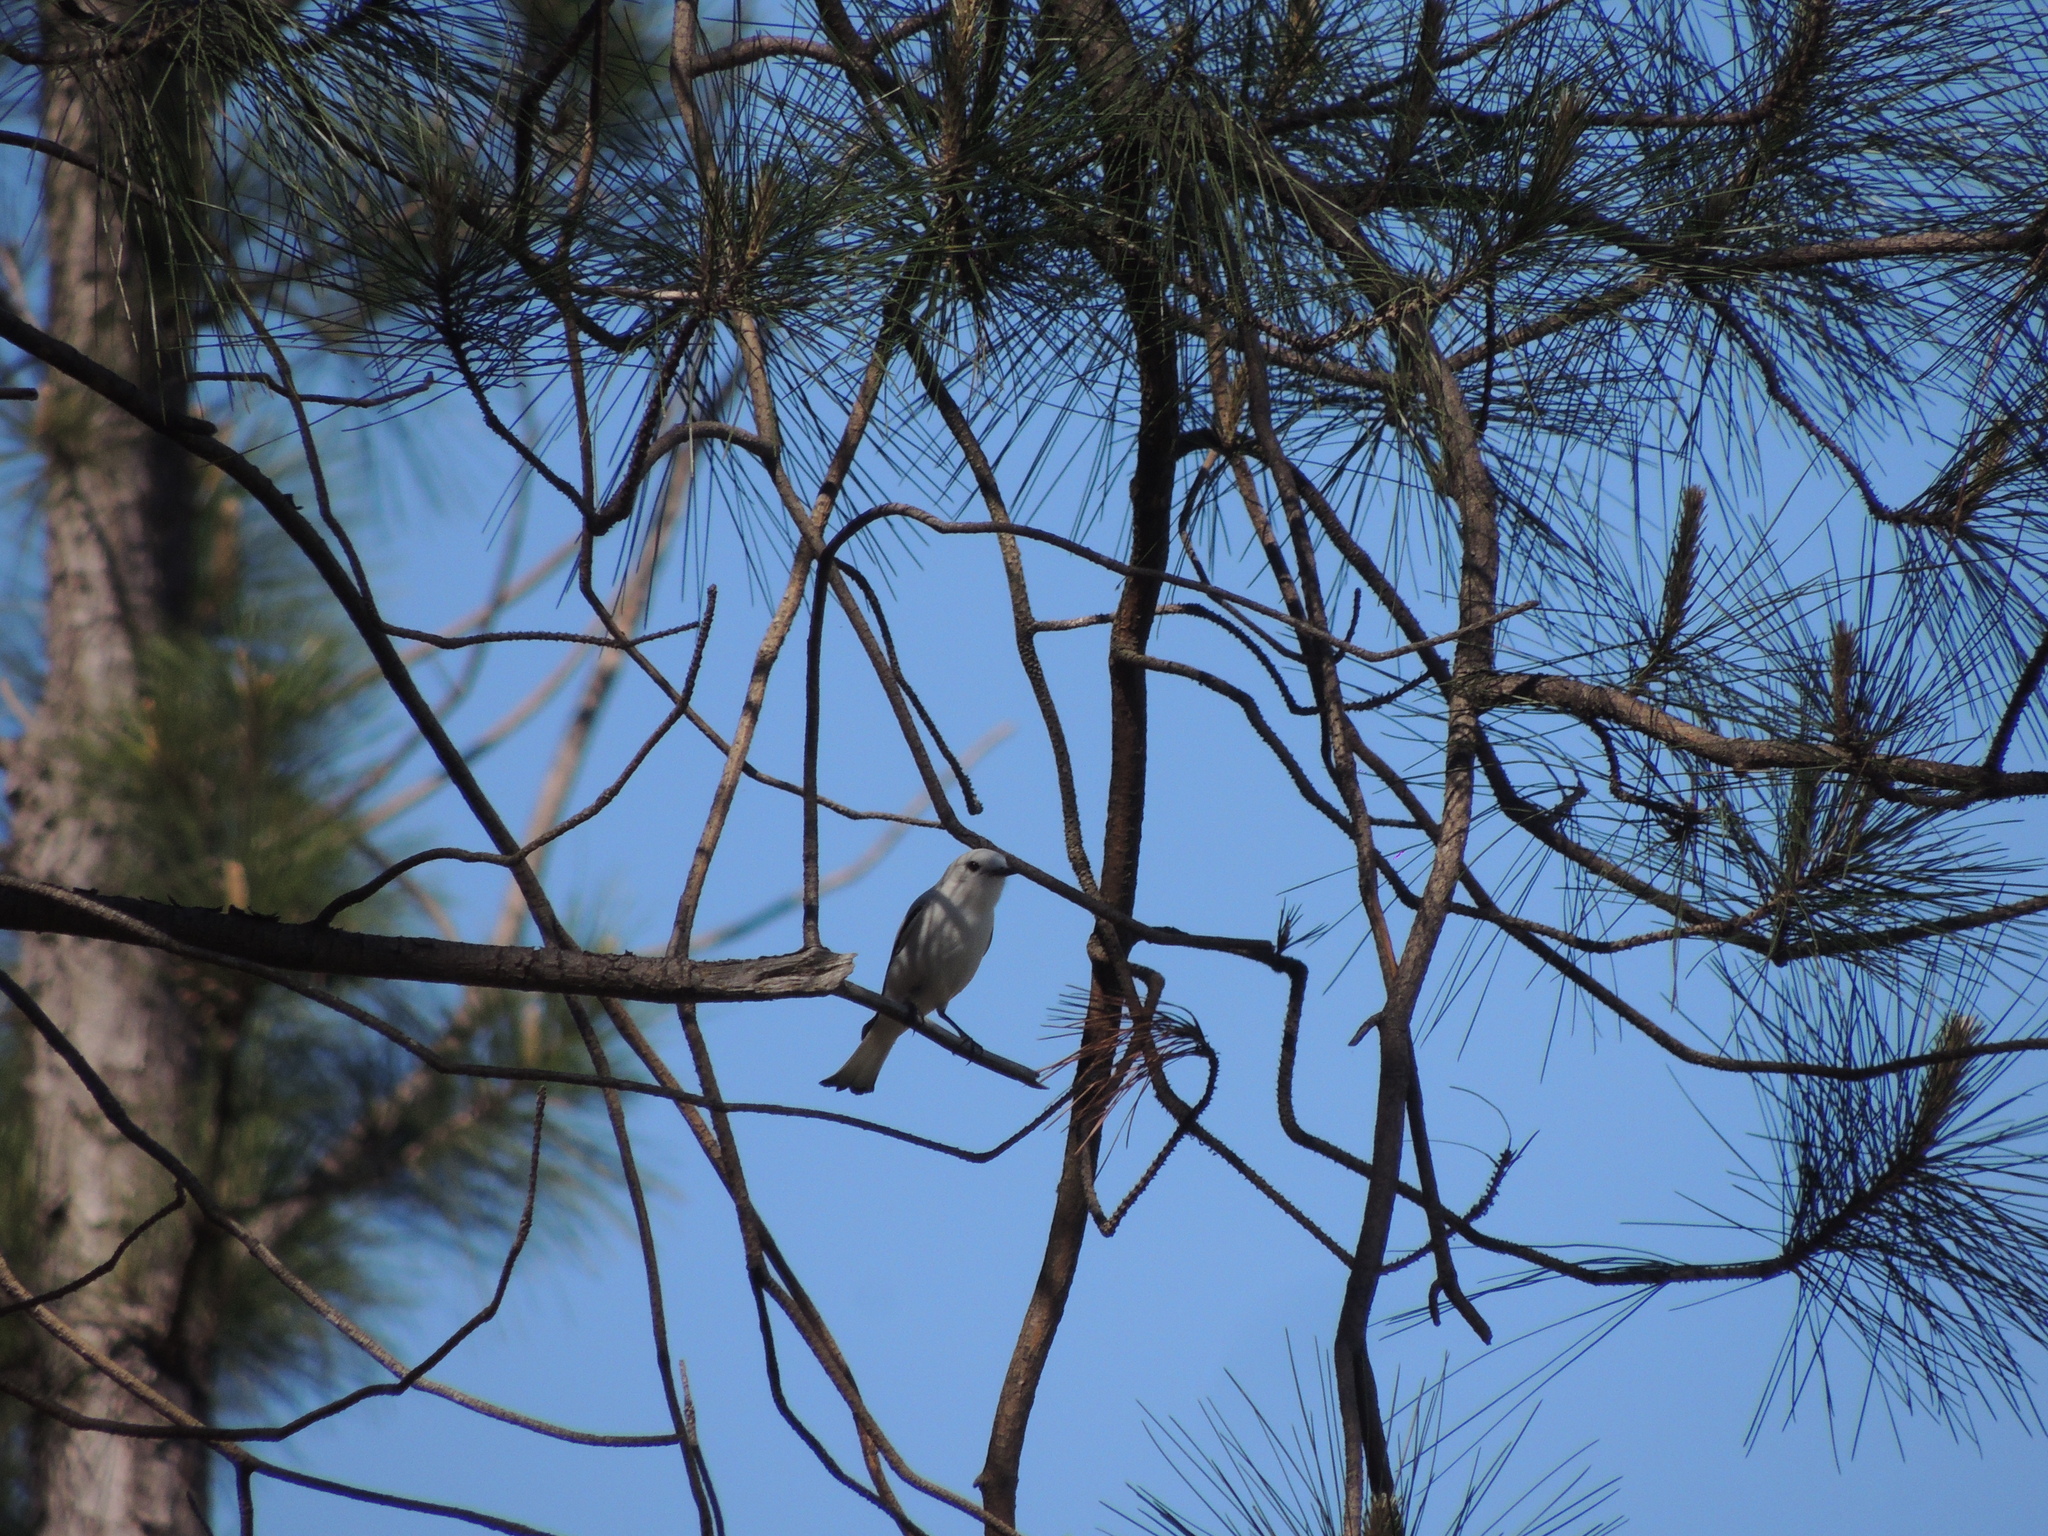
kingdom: Animalia
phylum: Chordata
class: Aves
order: Passeriformes
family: Tyrannidae
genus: Xolmis
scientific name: Xolmis irupero
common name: White monjita
